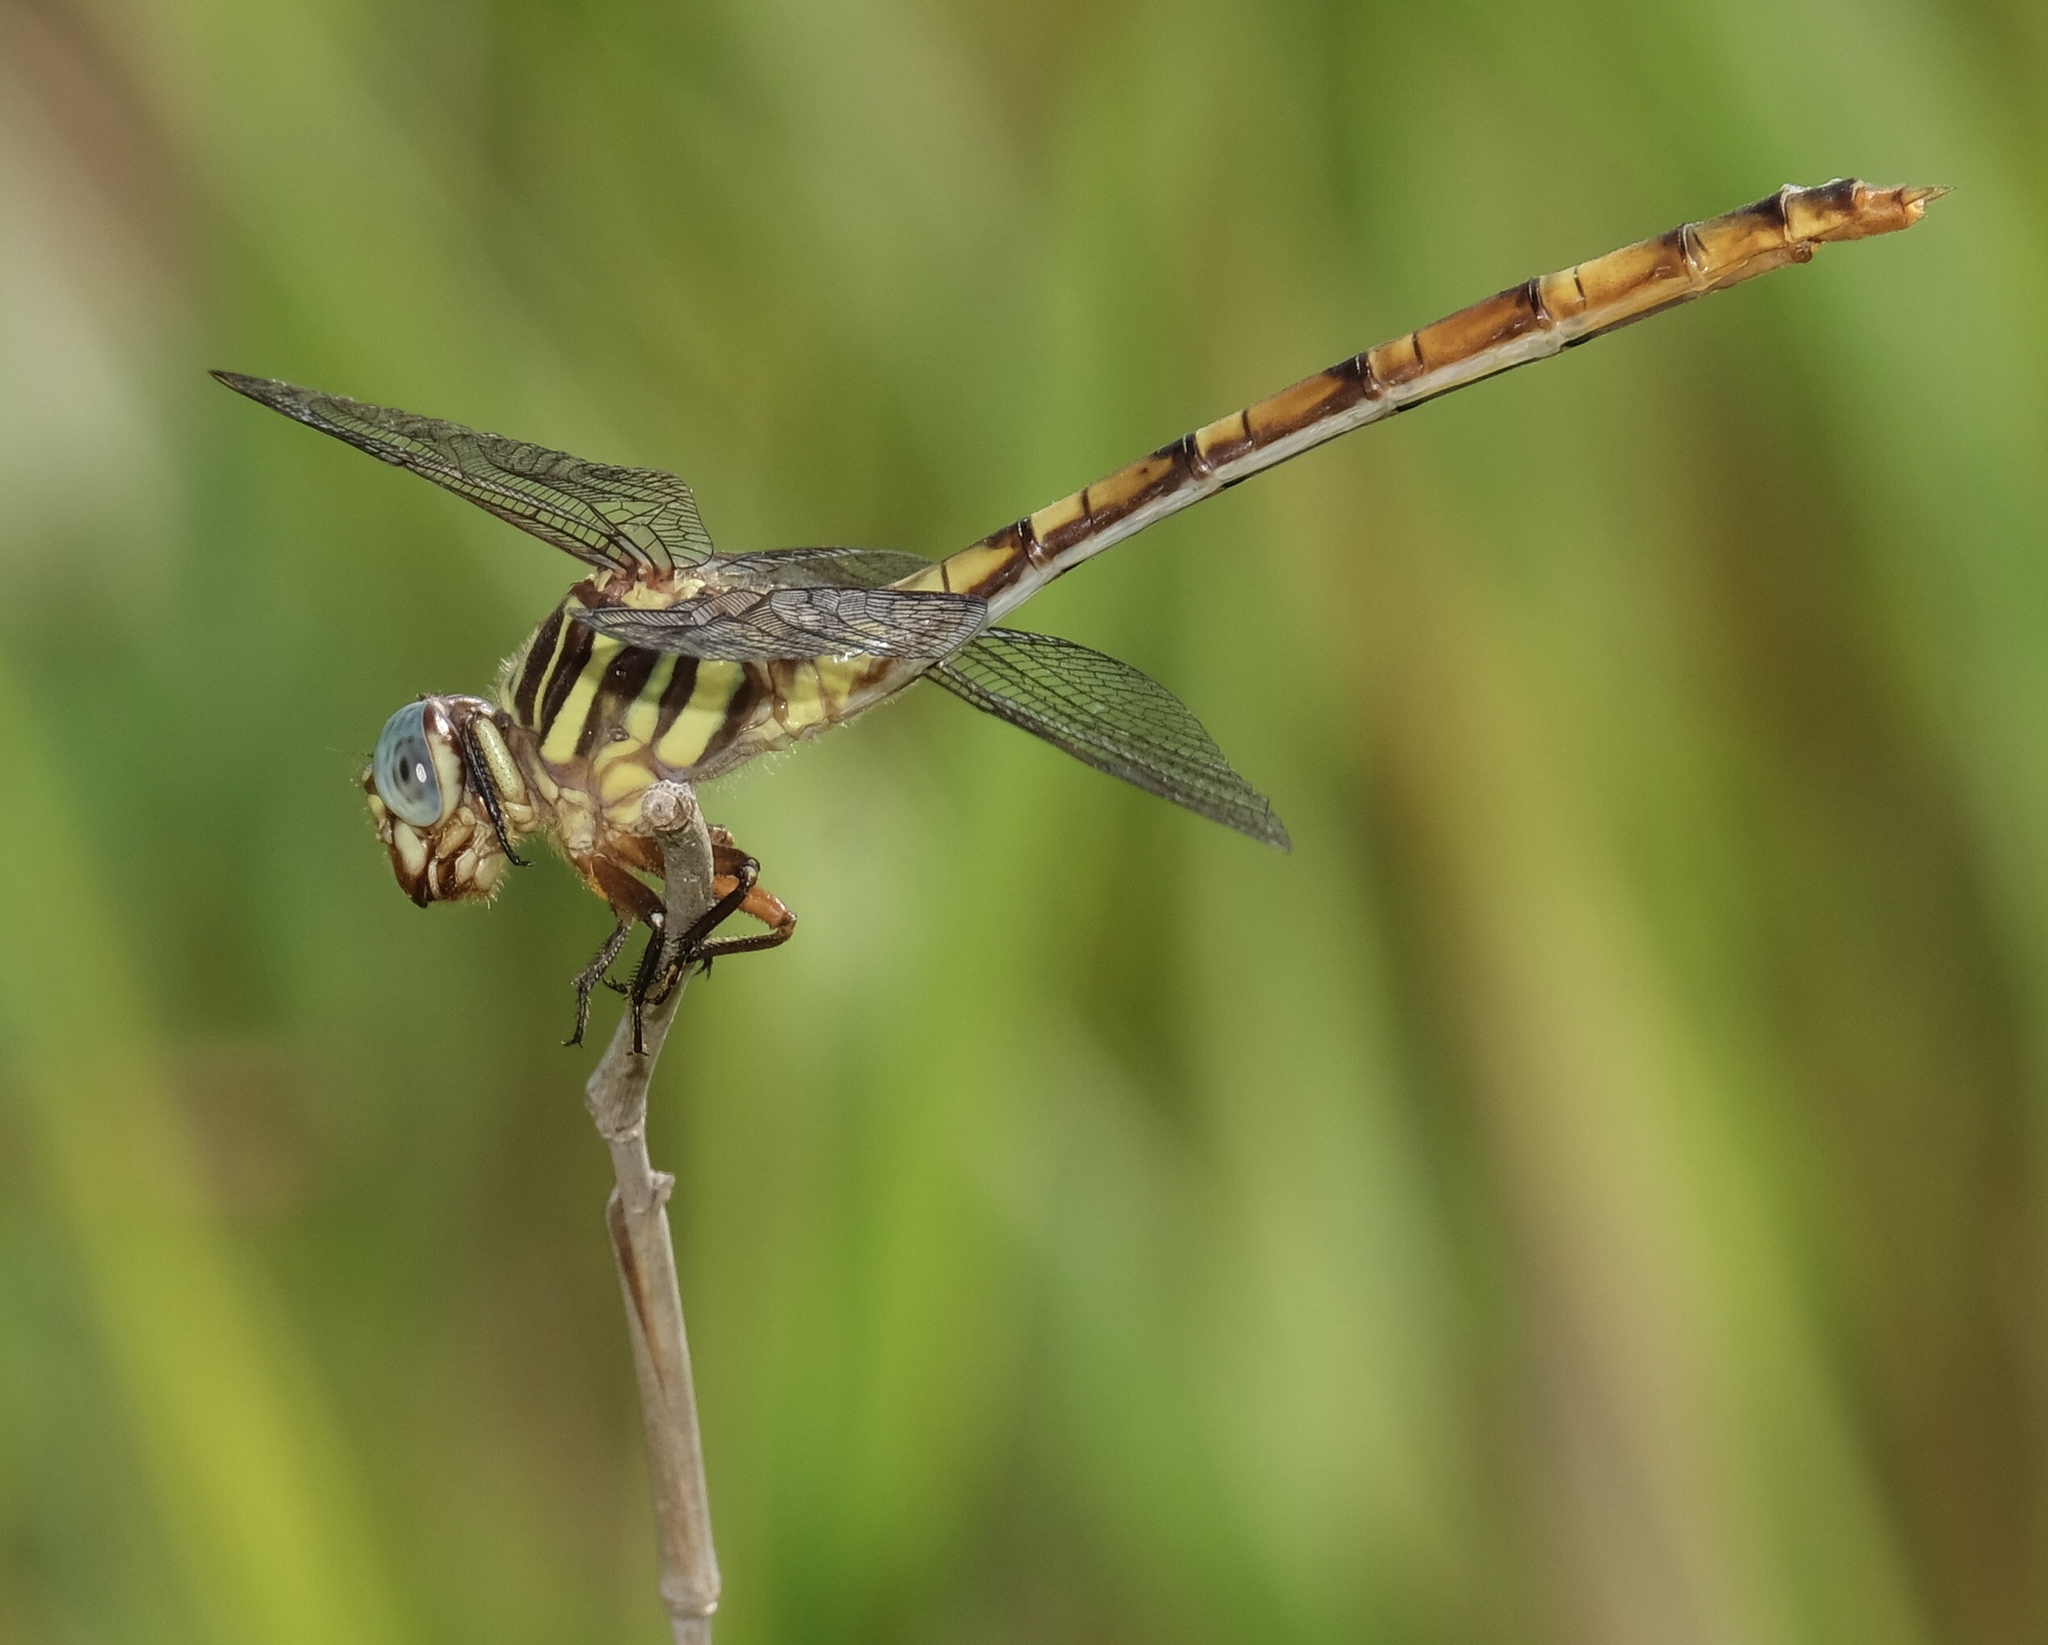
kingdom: Animalia
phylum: Arthropoda
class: Insecta
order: Odonata
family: Gomphidae
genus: Aphylla
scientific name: Aphylla angustifolia
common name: Broad-striped forceptail
